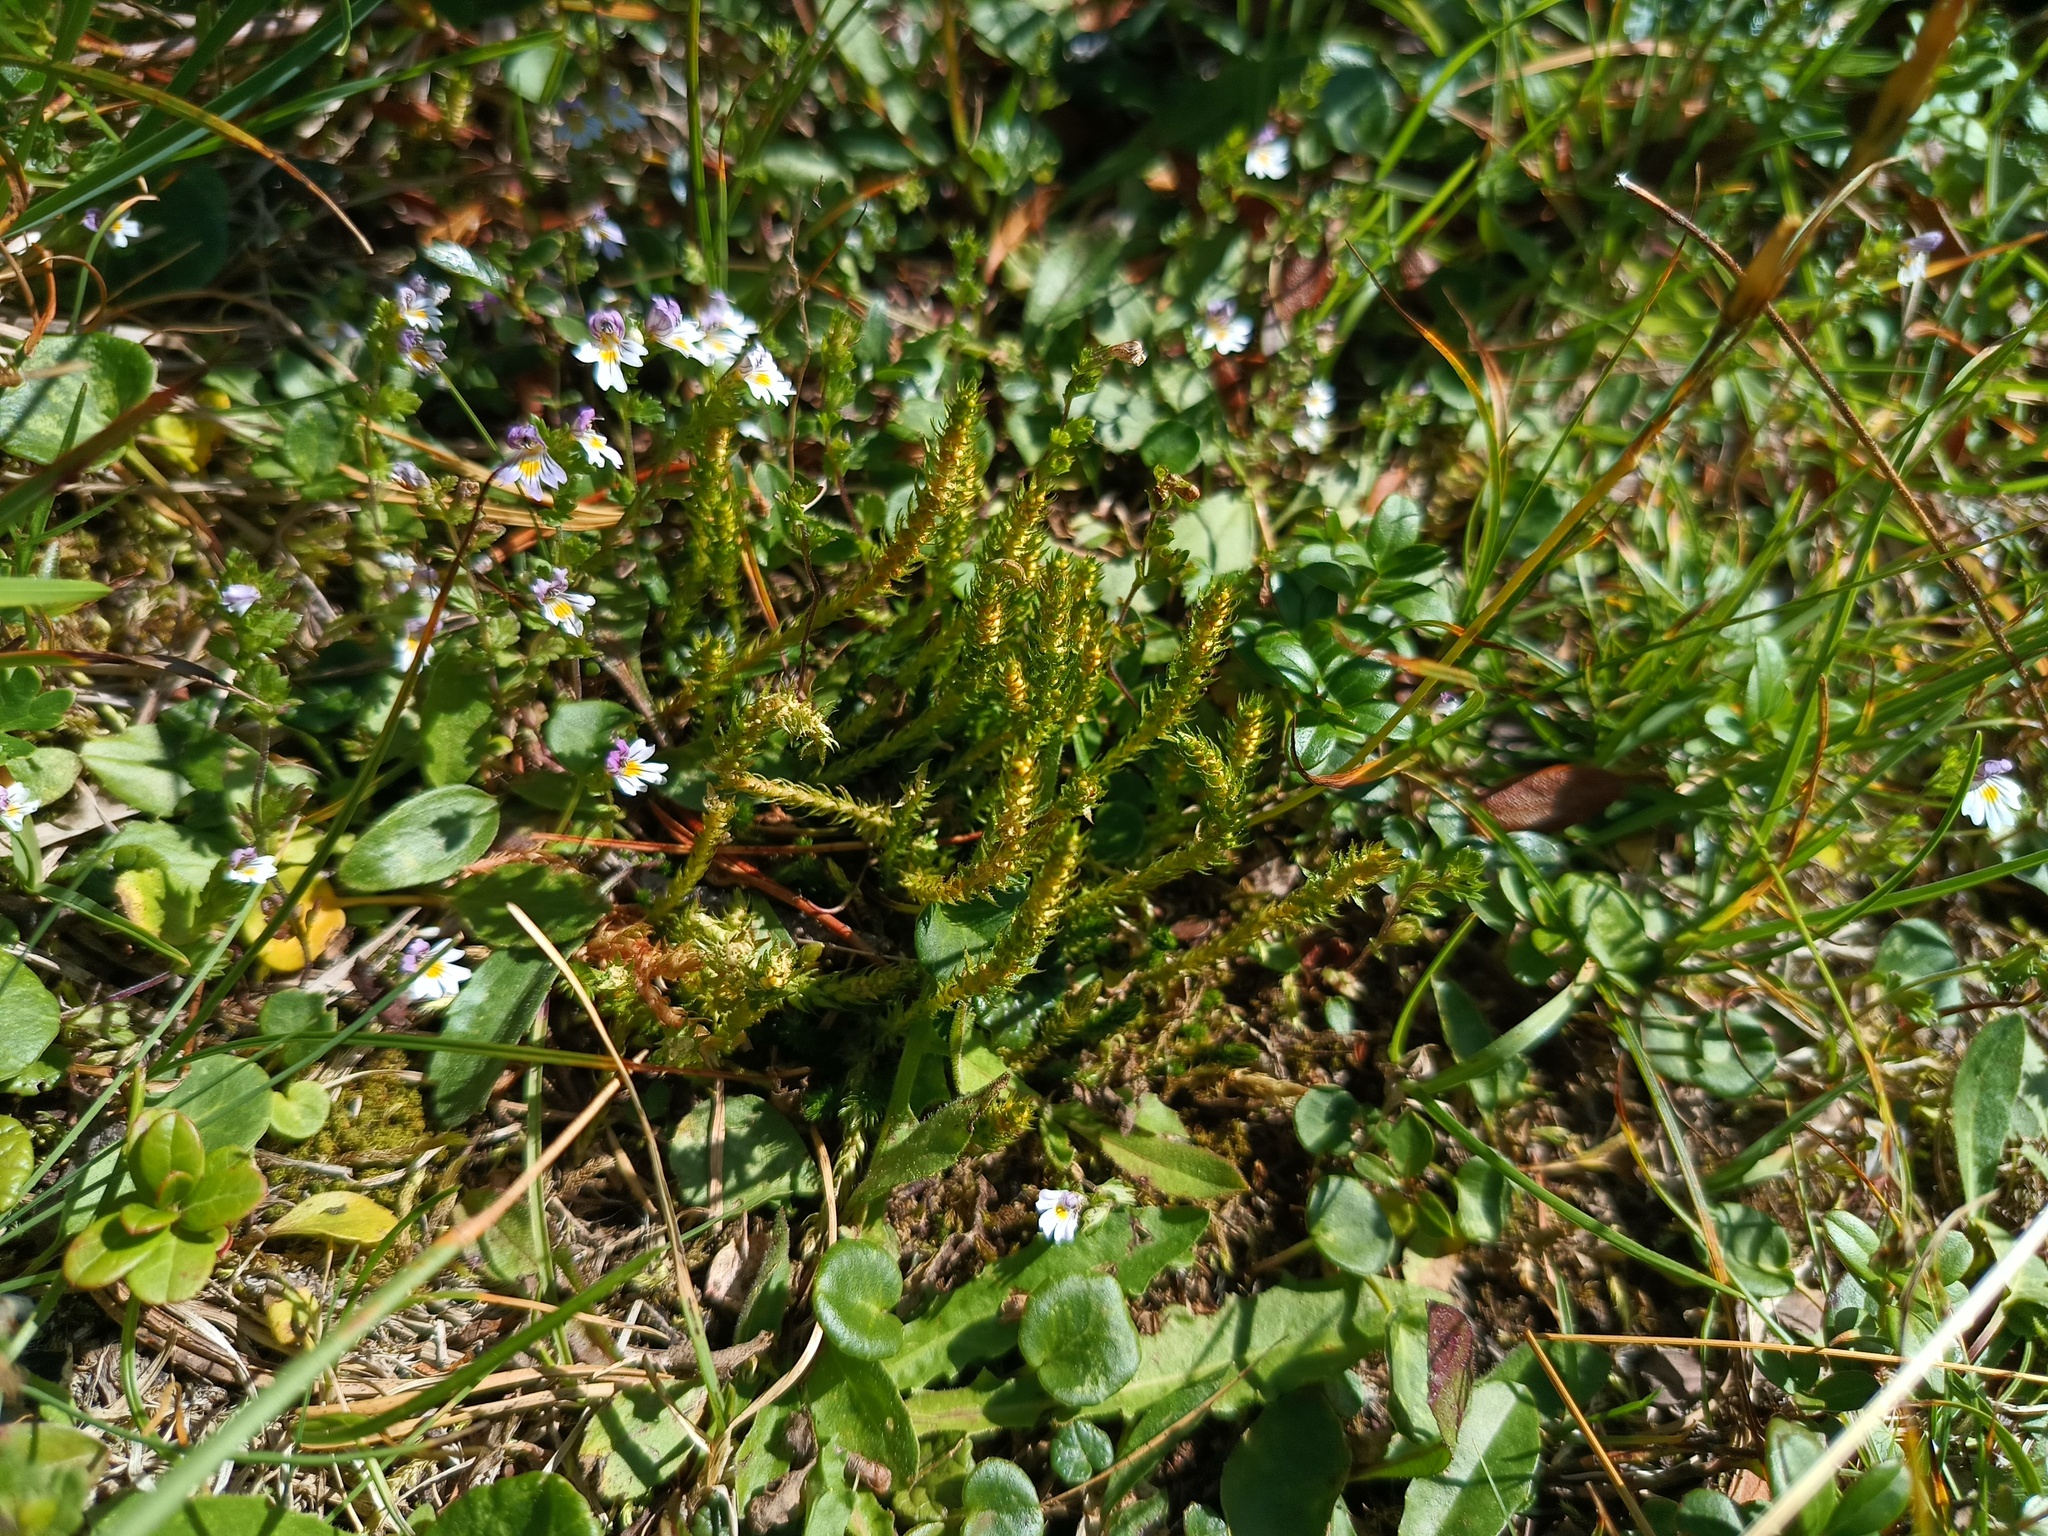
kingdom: Plantae
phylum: Tracheophyta
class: Lycopodiopsida
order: Selaginellales
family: Selaginellaceae
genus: Selaginella
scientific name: Selaginella selaginoides
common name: Prickly mountain-moss
